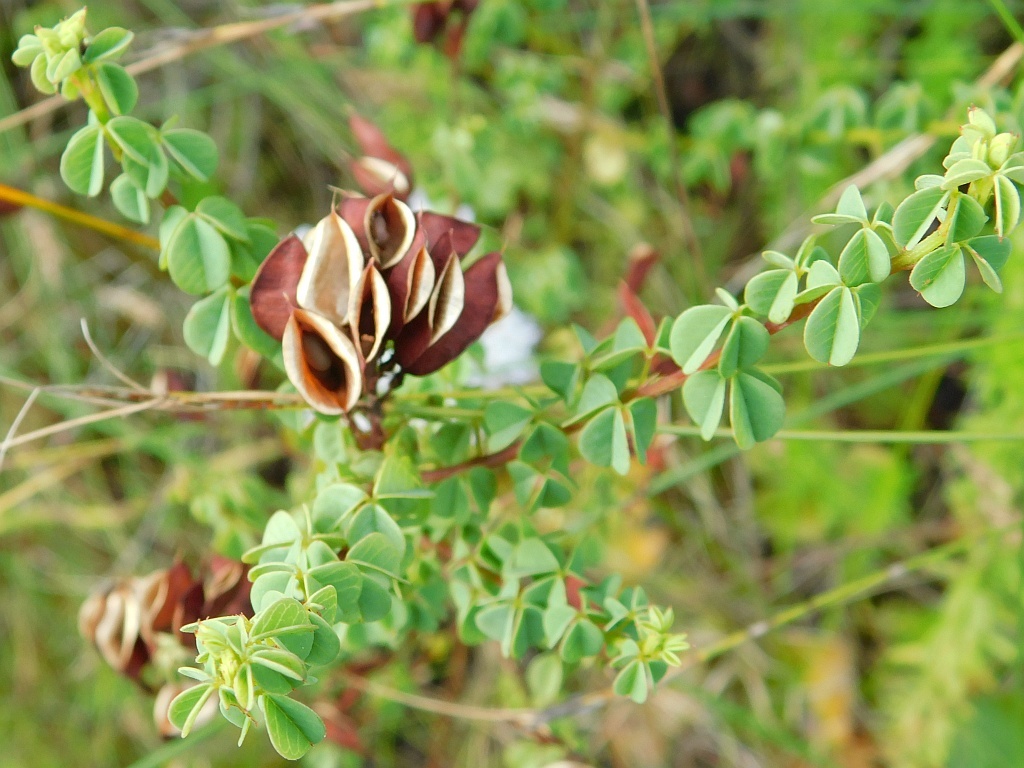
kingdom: Plantae
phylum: Tracheophyta
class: Magnoliopsida
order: Fabales
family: Fabaceae
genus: Hypocalyptus
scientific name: Hypocalyptus oxalidifolius
